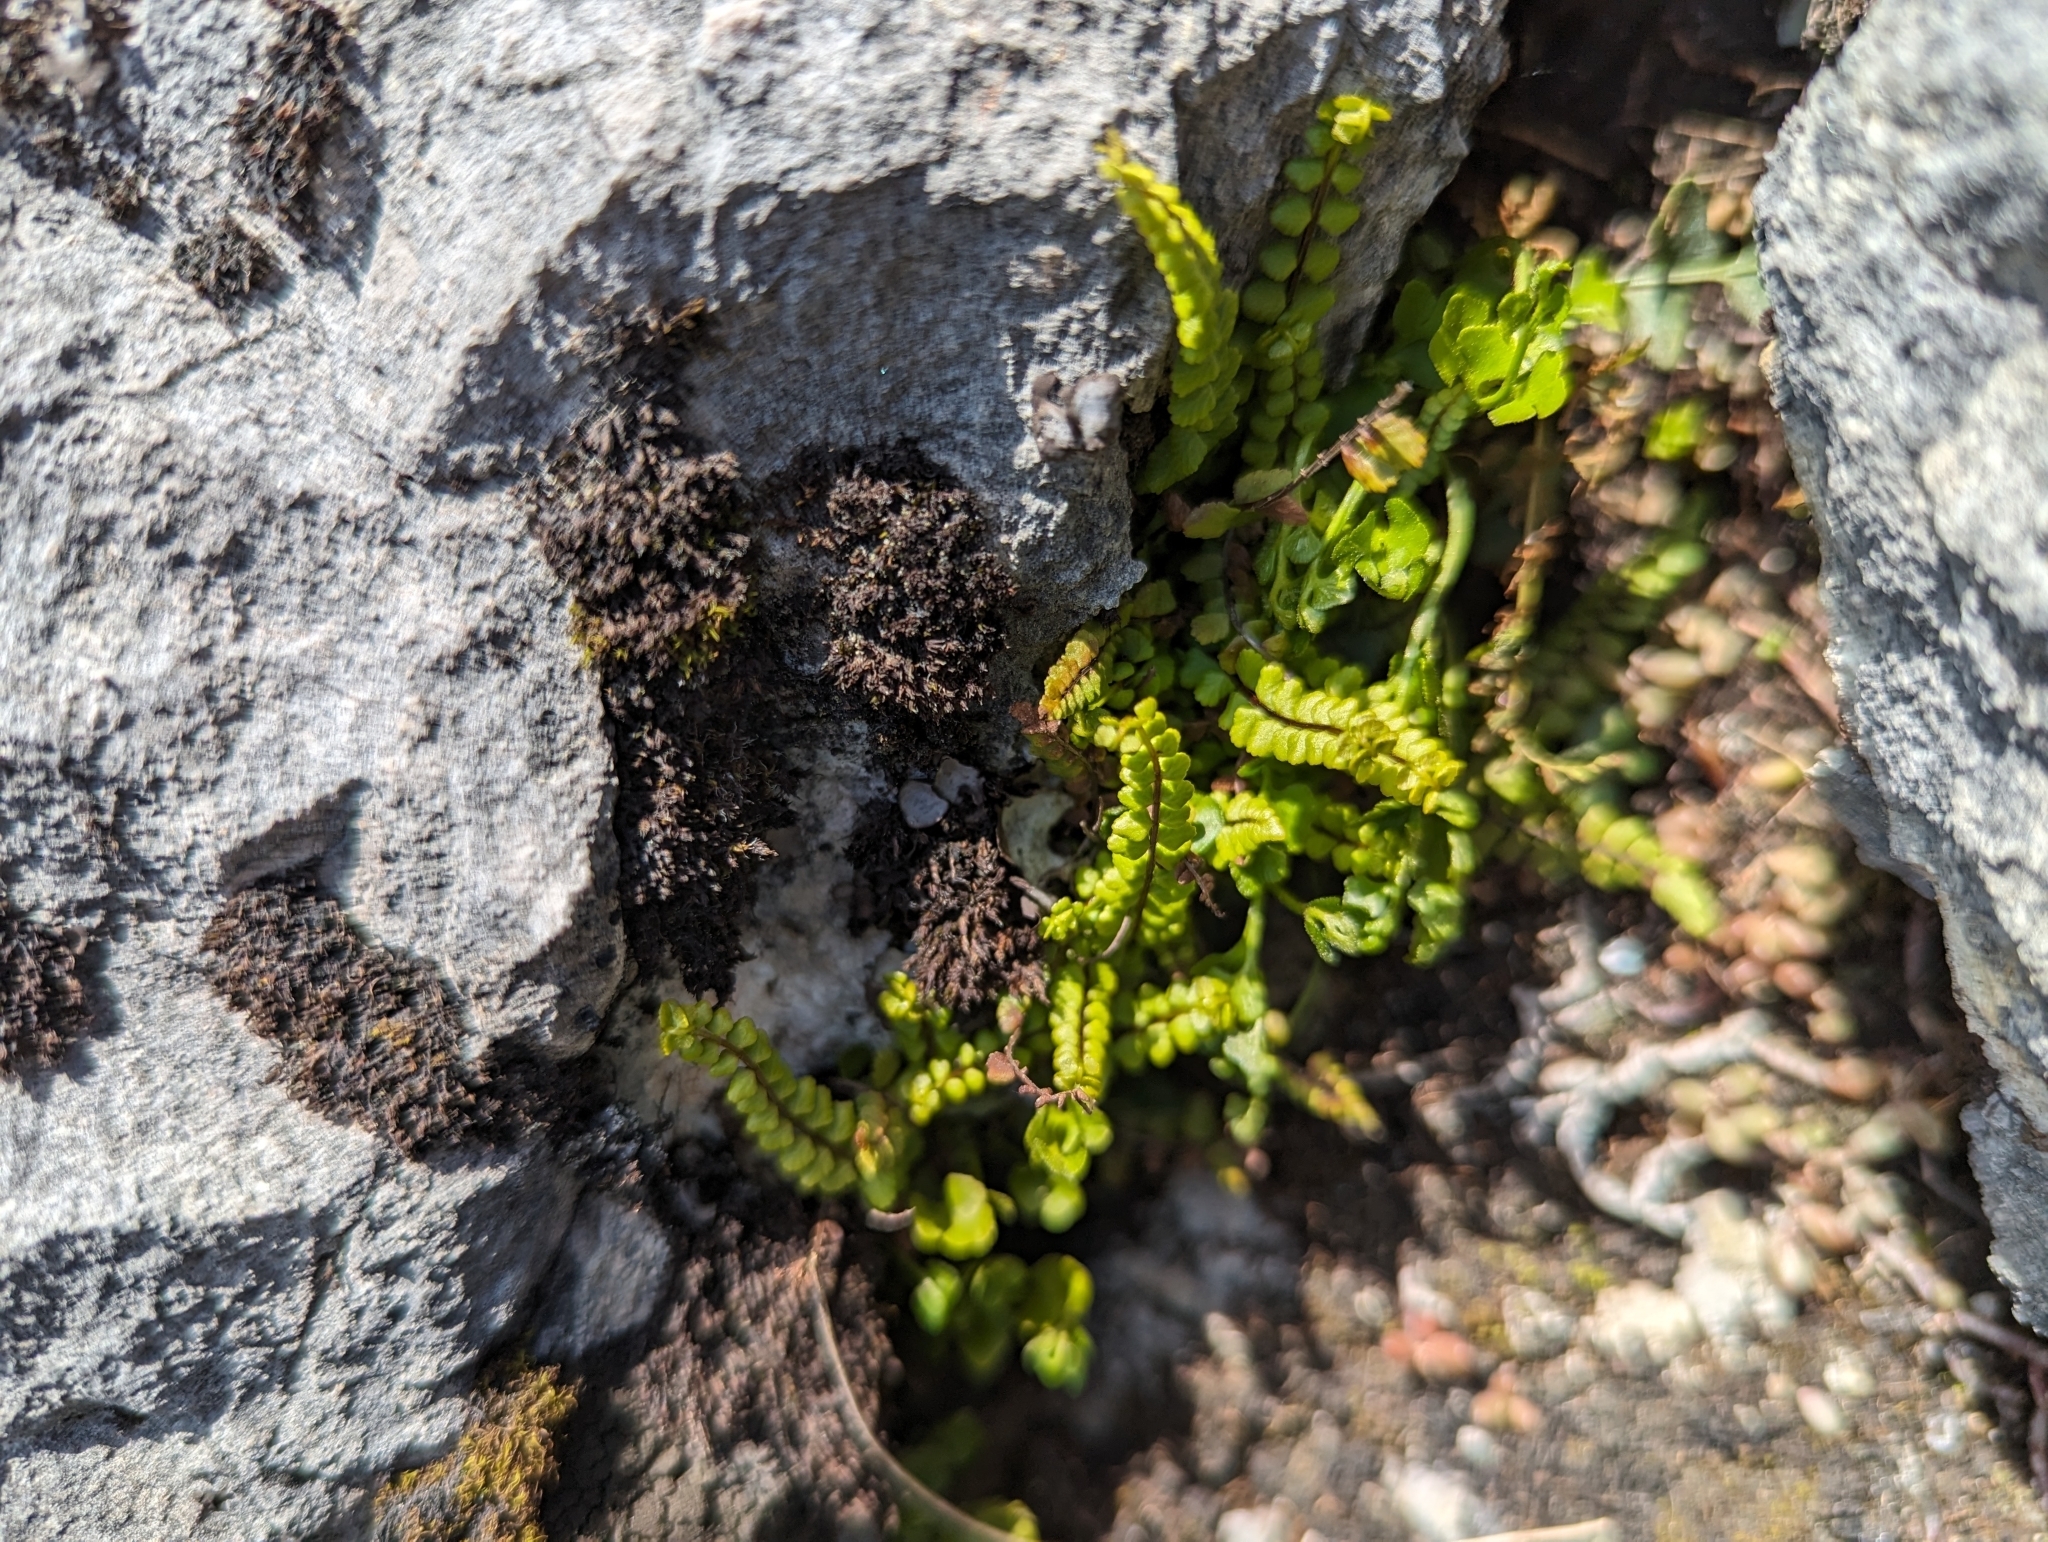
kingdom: Plantae
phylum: Tracheophyta
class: Polypodiopsida
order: Polypodiales
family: Aspleniaceae
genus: Asplenium
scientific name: Asplenium trichomanes
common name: Maidenhair spleenwort
